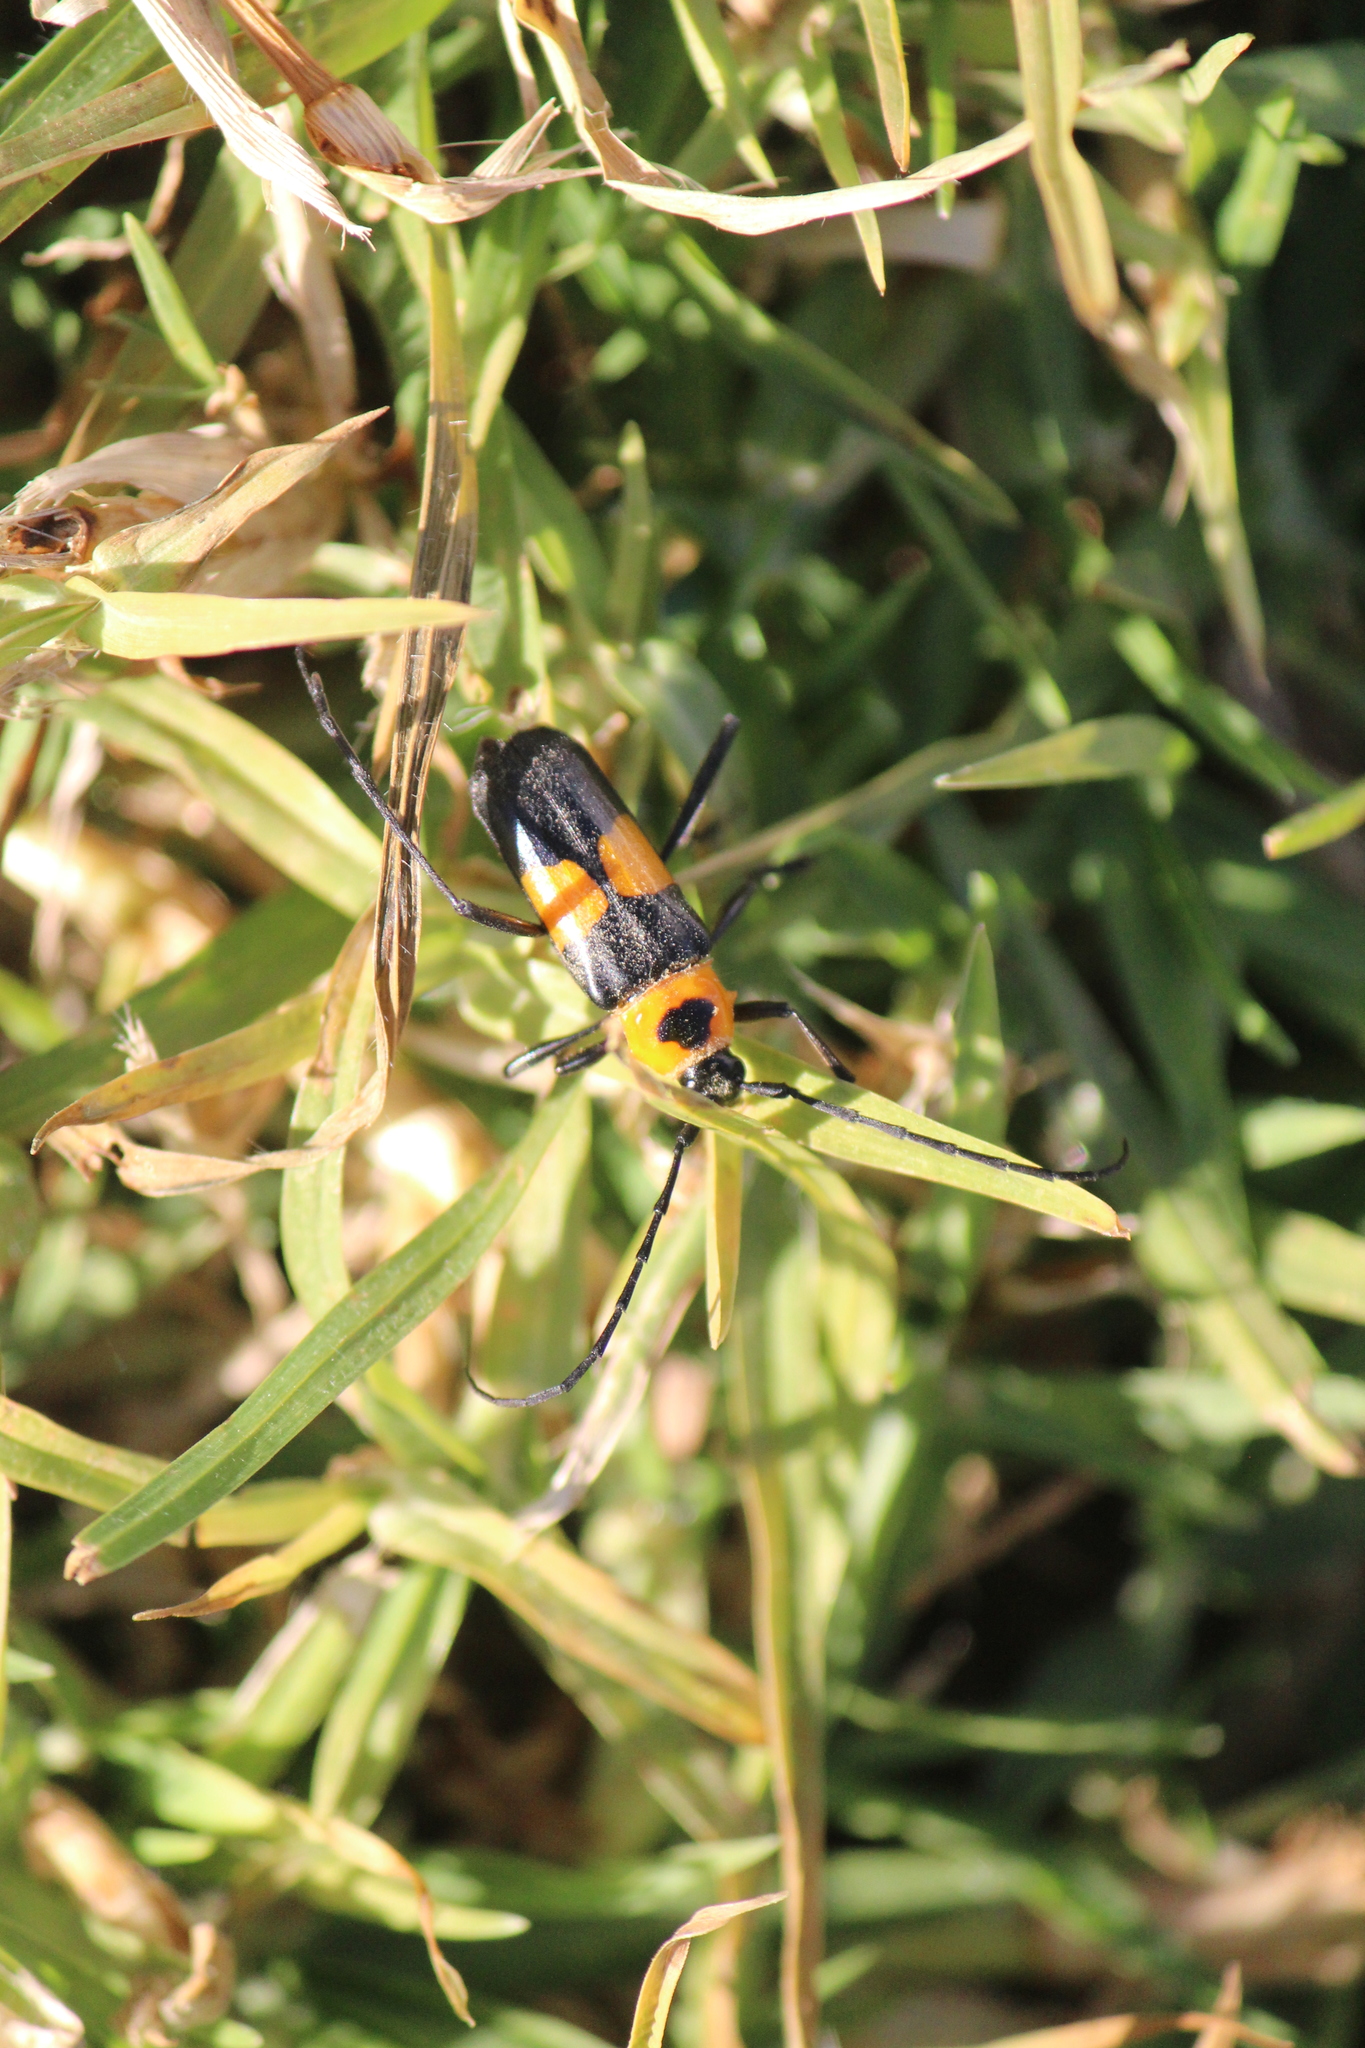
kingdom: Animalia
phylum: Arthropoda
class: Insecta
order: Coleoptera
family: Cerambycidae
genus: Gambria
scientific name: Gambria leucozona
